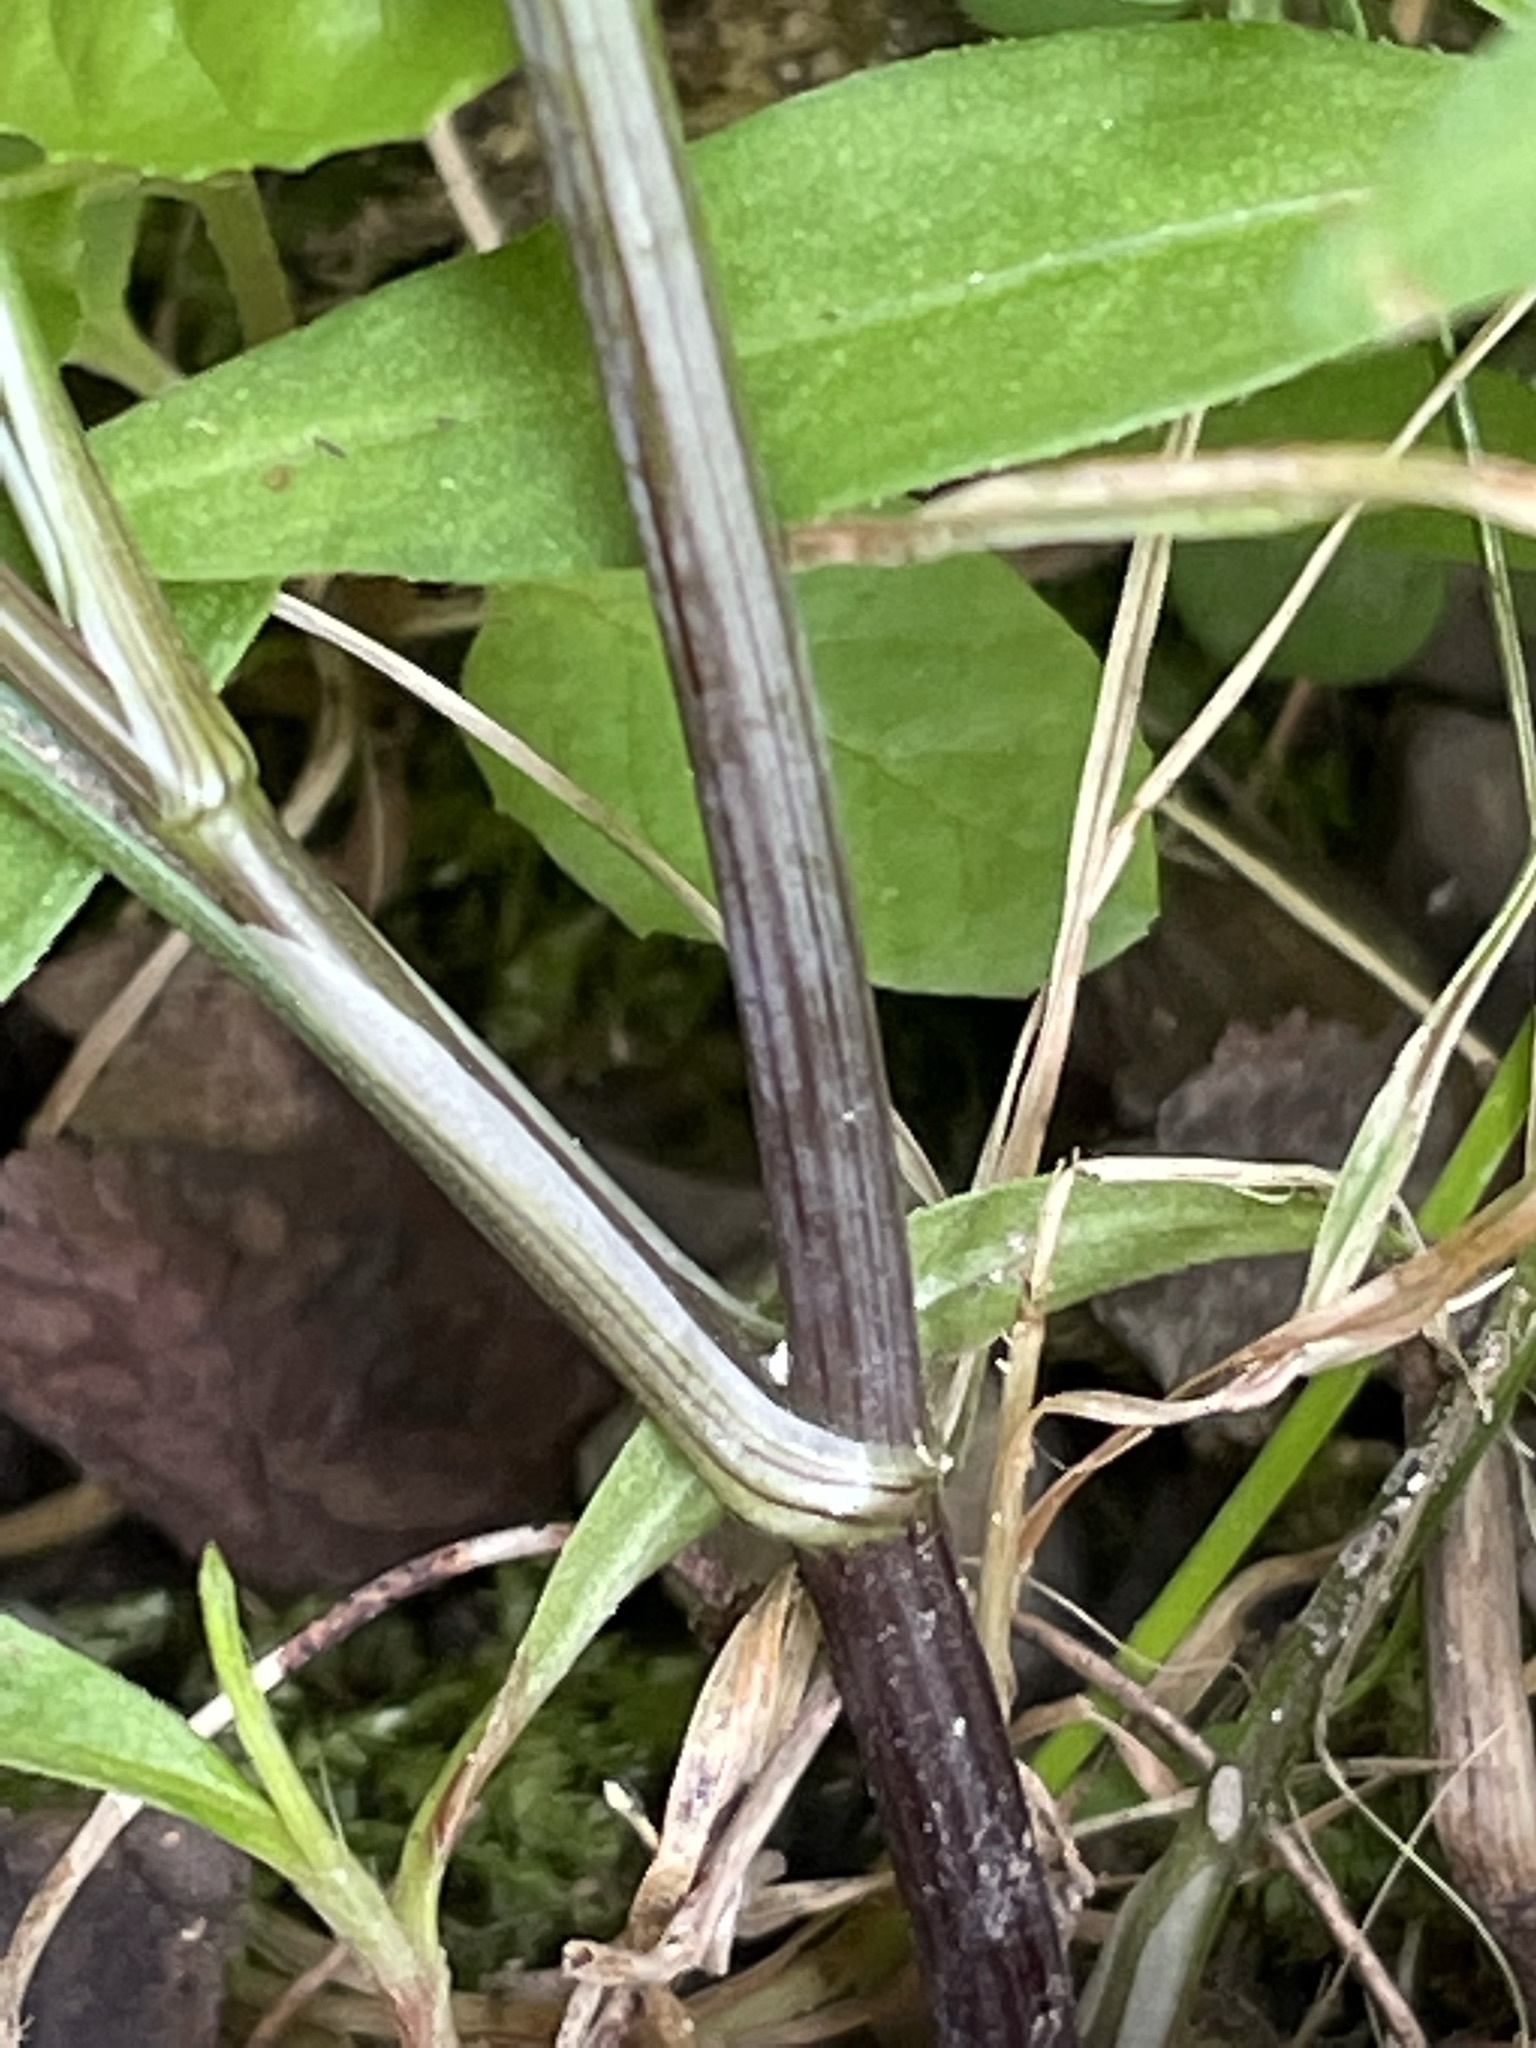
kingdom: Plantae
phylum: Tracheophyta
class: Magnoliopsida
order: Apiales
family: Apiaceae
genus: Aethusa
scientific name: Aethusa cynapium
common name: Fool's parsley
